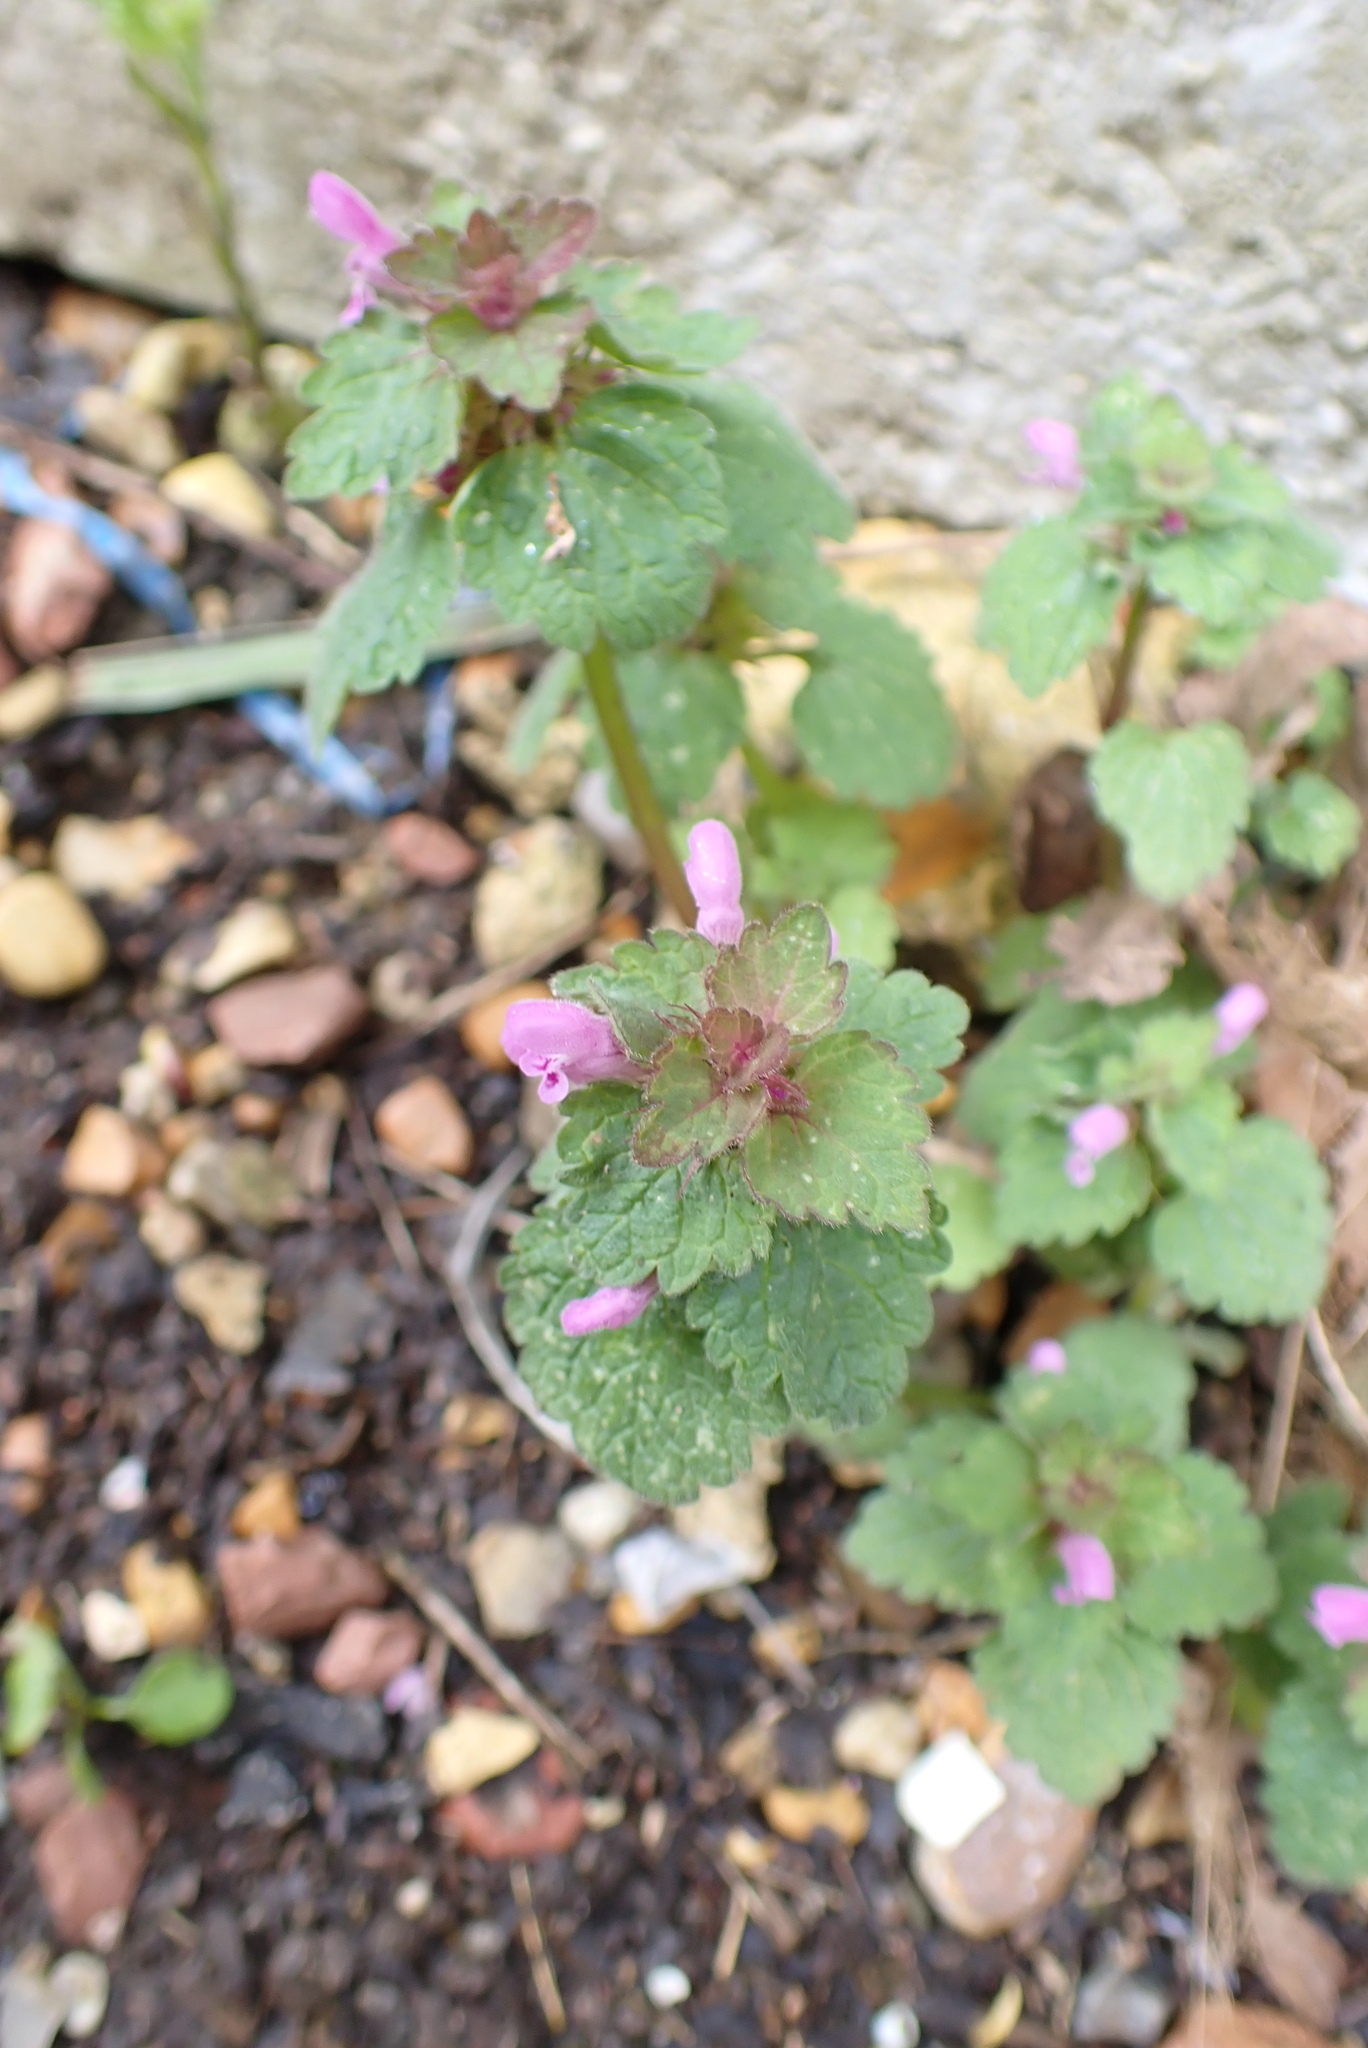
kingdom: Plantae
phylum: Tracheophyta
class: Magnoliopsida
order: Lamiales
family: Lamiaceae
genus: Lamium
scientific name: Lamium purpureum
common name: Red dead-nettle
